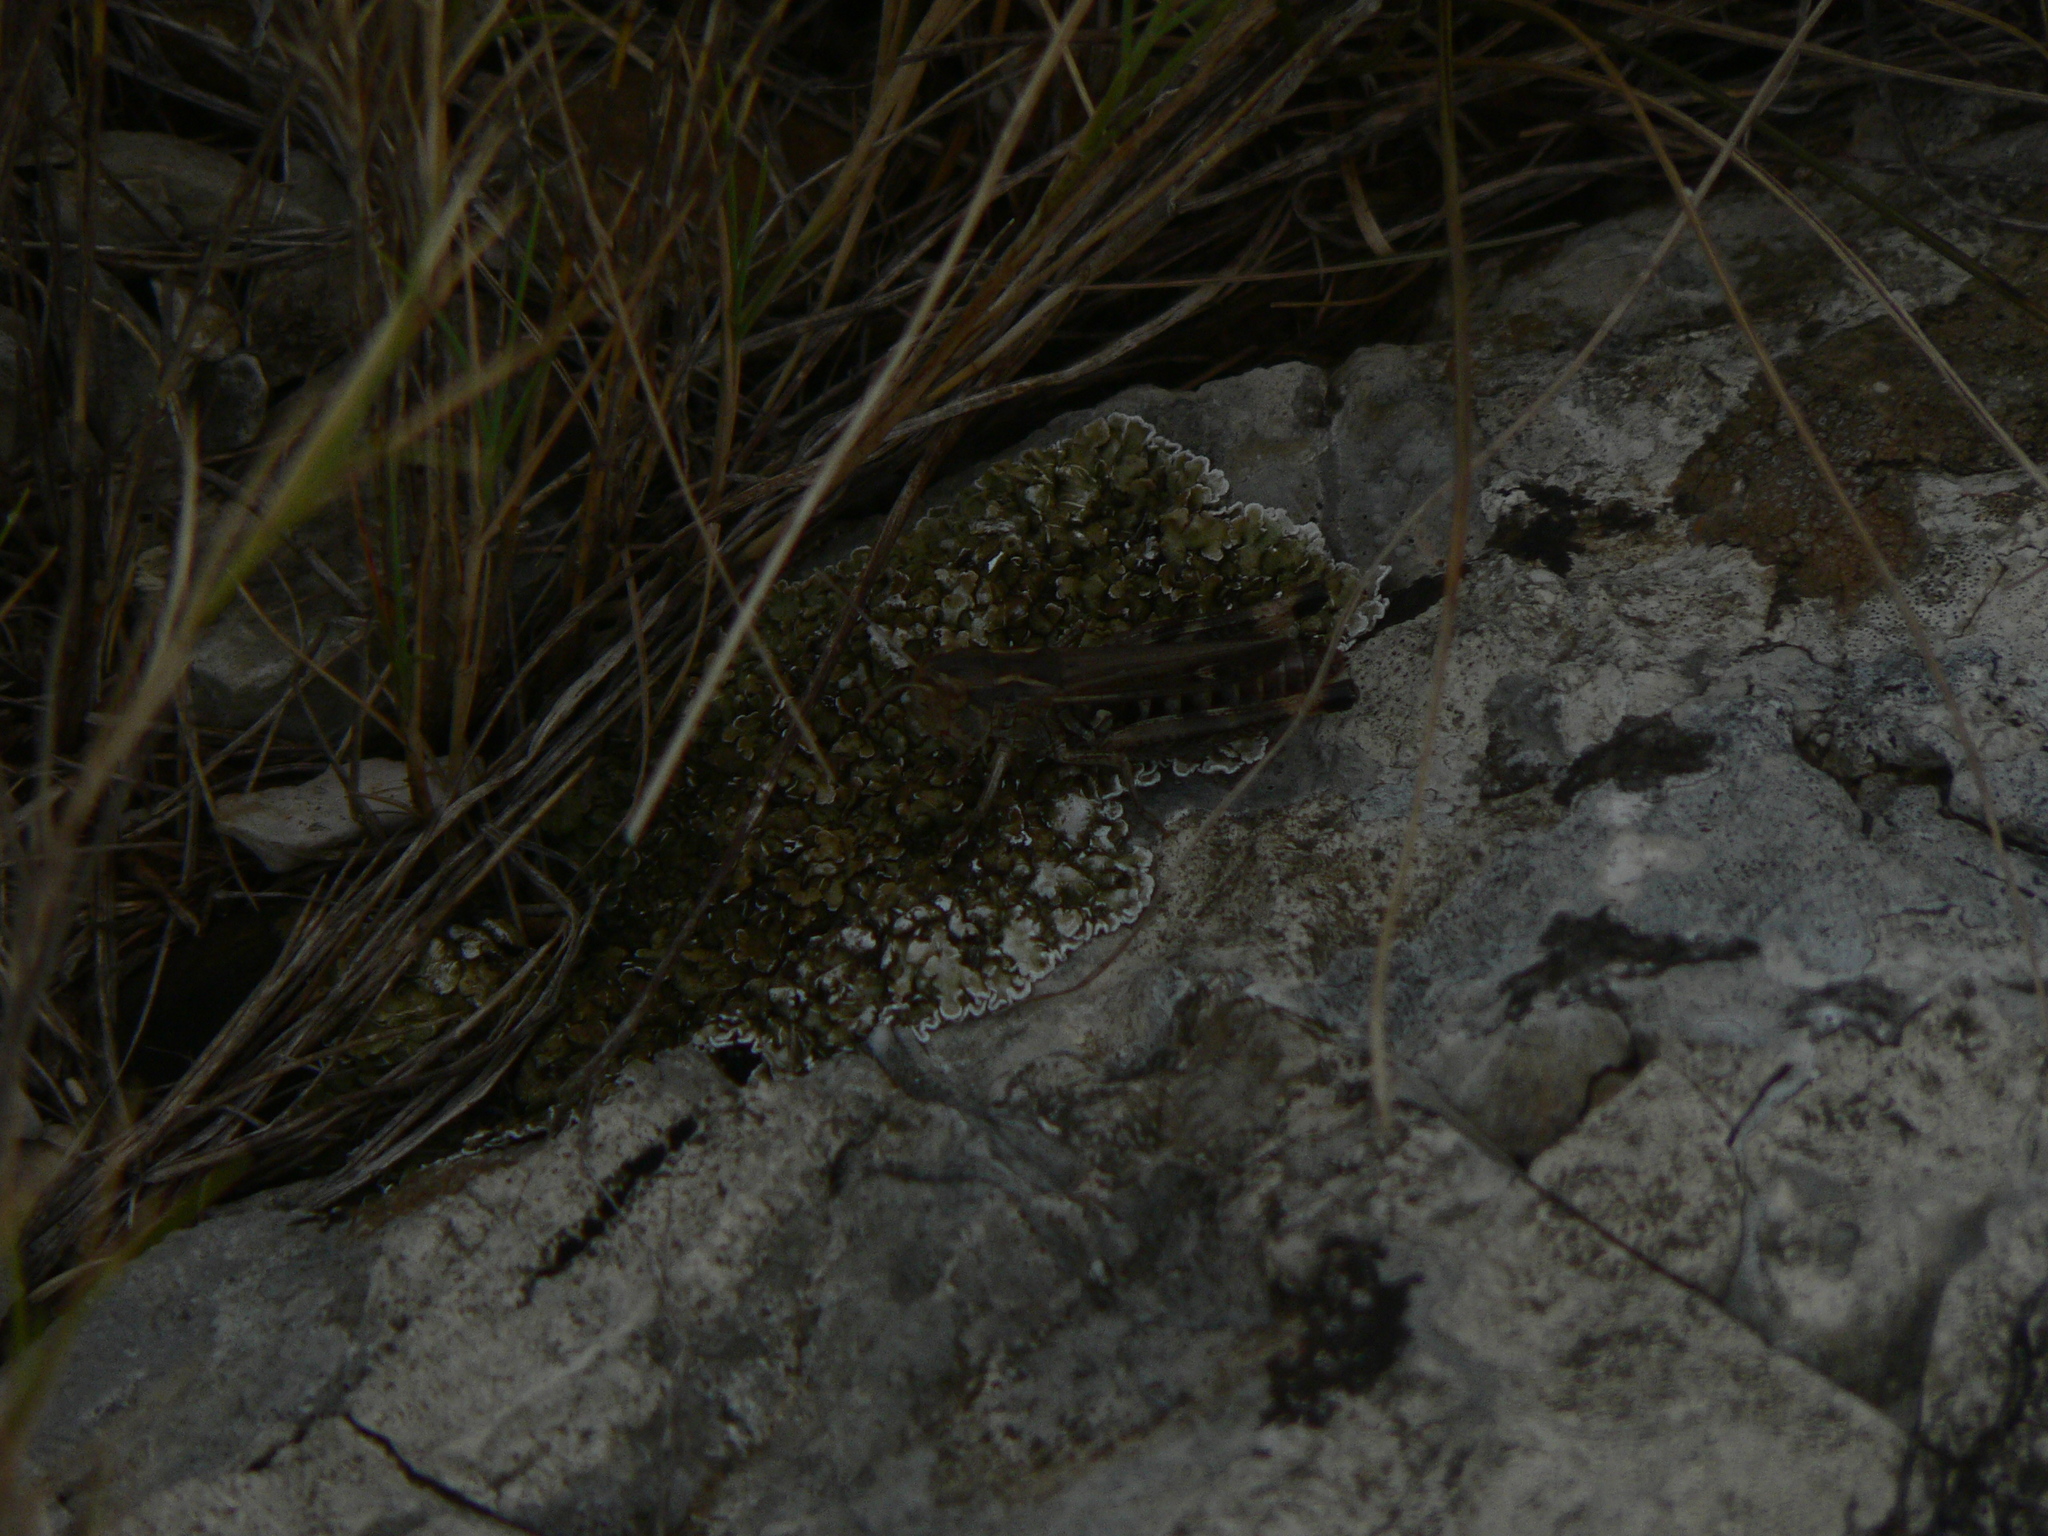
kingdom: Animalia
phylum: Arthropoda
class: Insecta
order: Orthoptera
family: Acrididae
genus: Stenobothrus
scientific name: Stenobothrus fischeri
